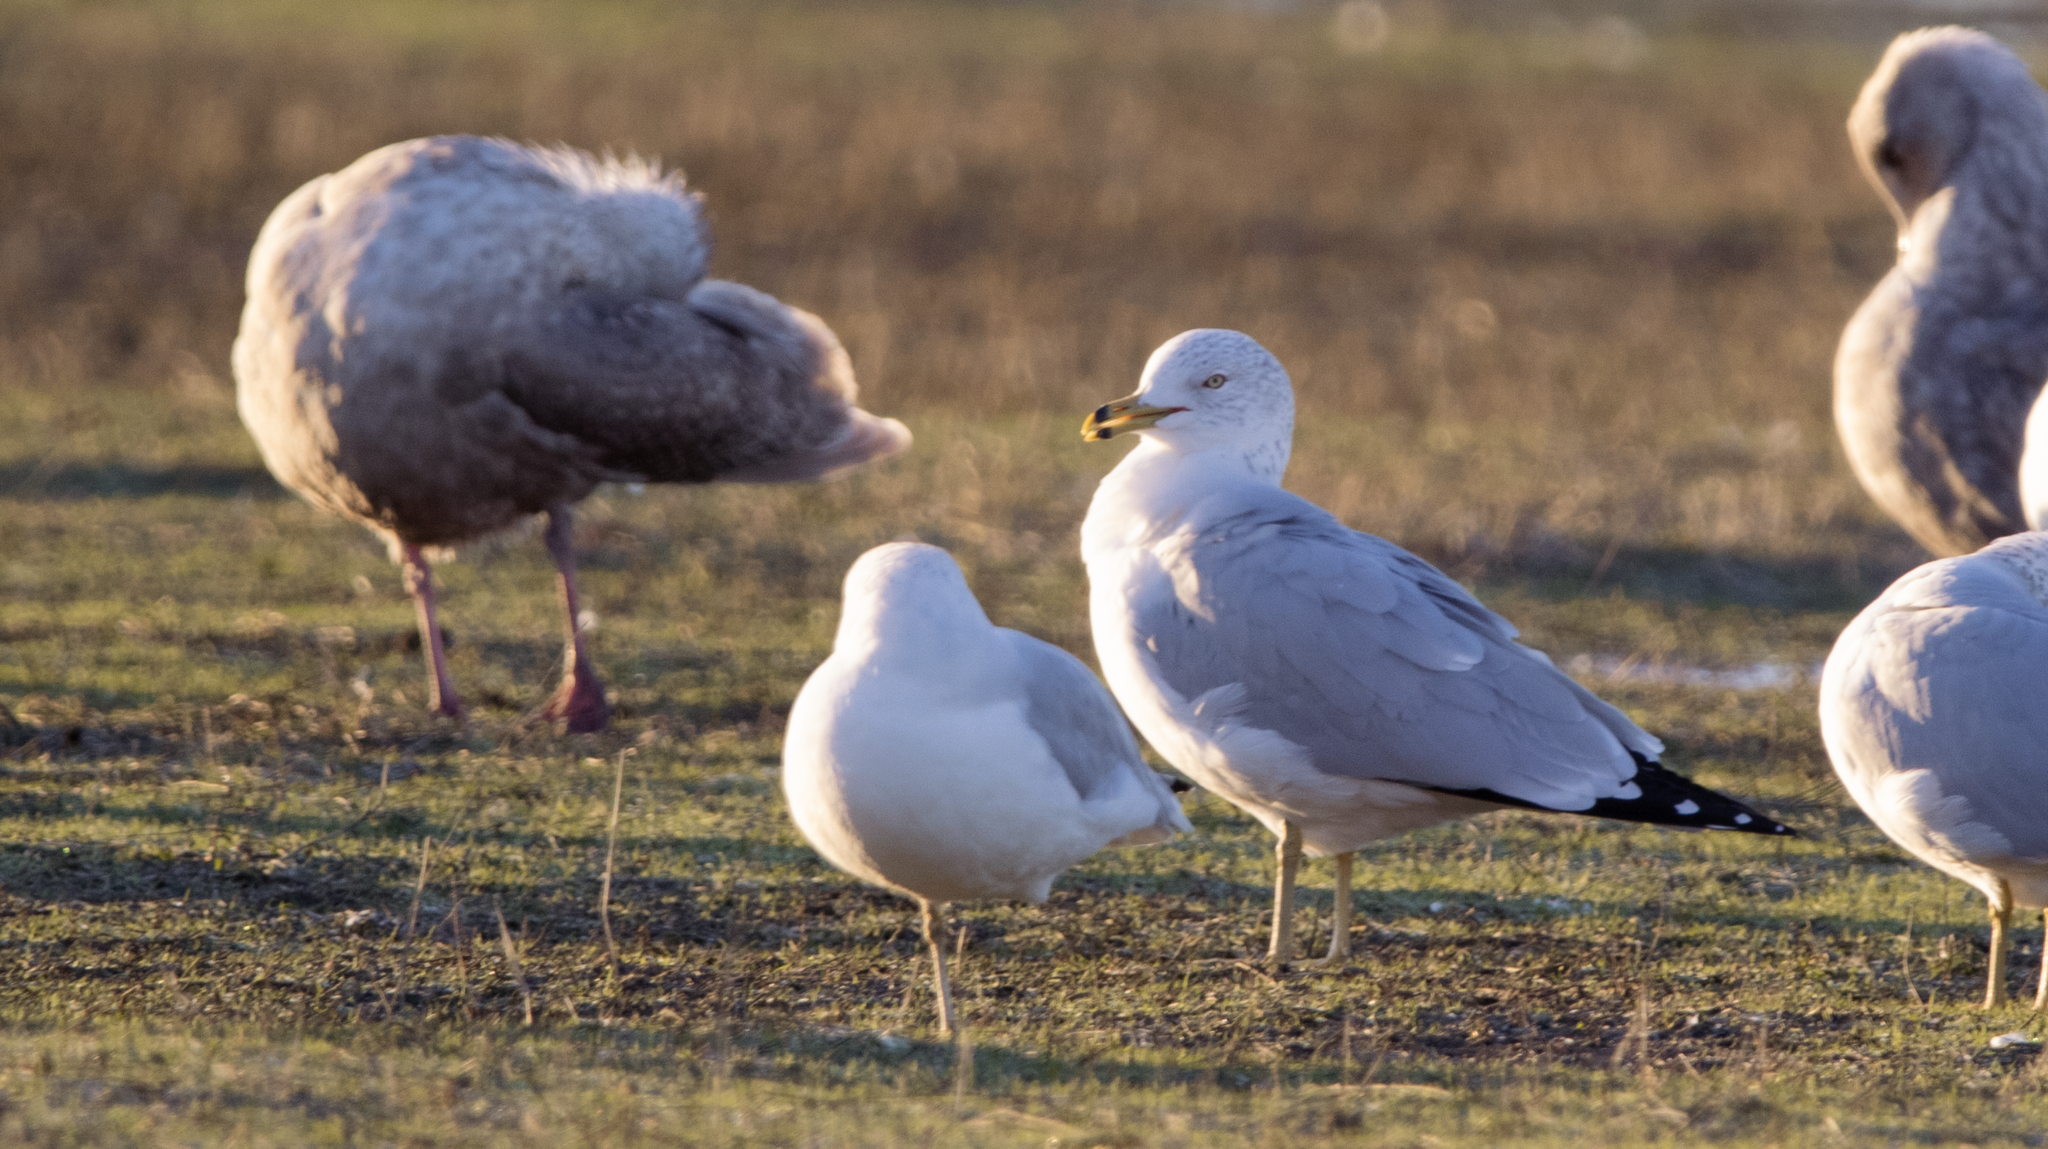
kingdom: Animalia
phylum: Chordata
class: Aves
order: Charadriiformes
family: Laridae
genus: Larus
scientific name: Larus delawarensis
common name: Ring-billed gull
